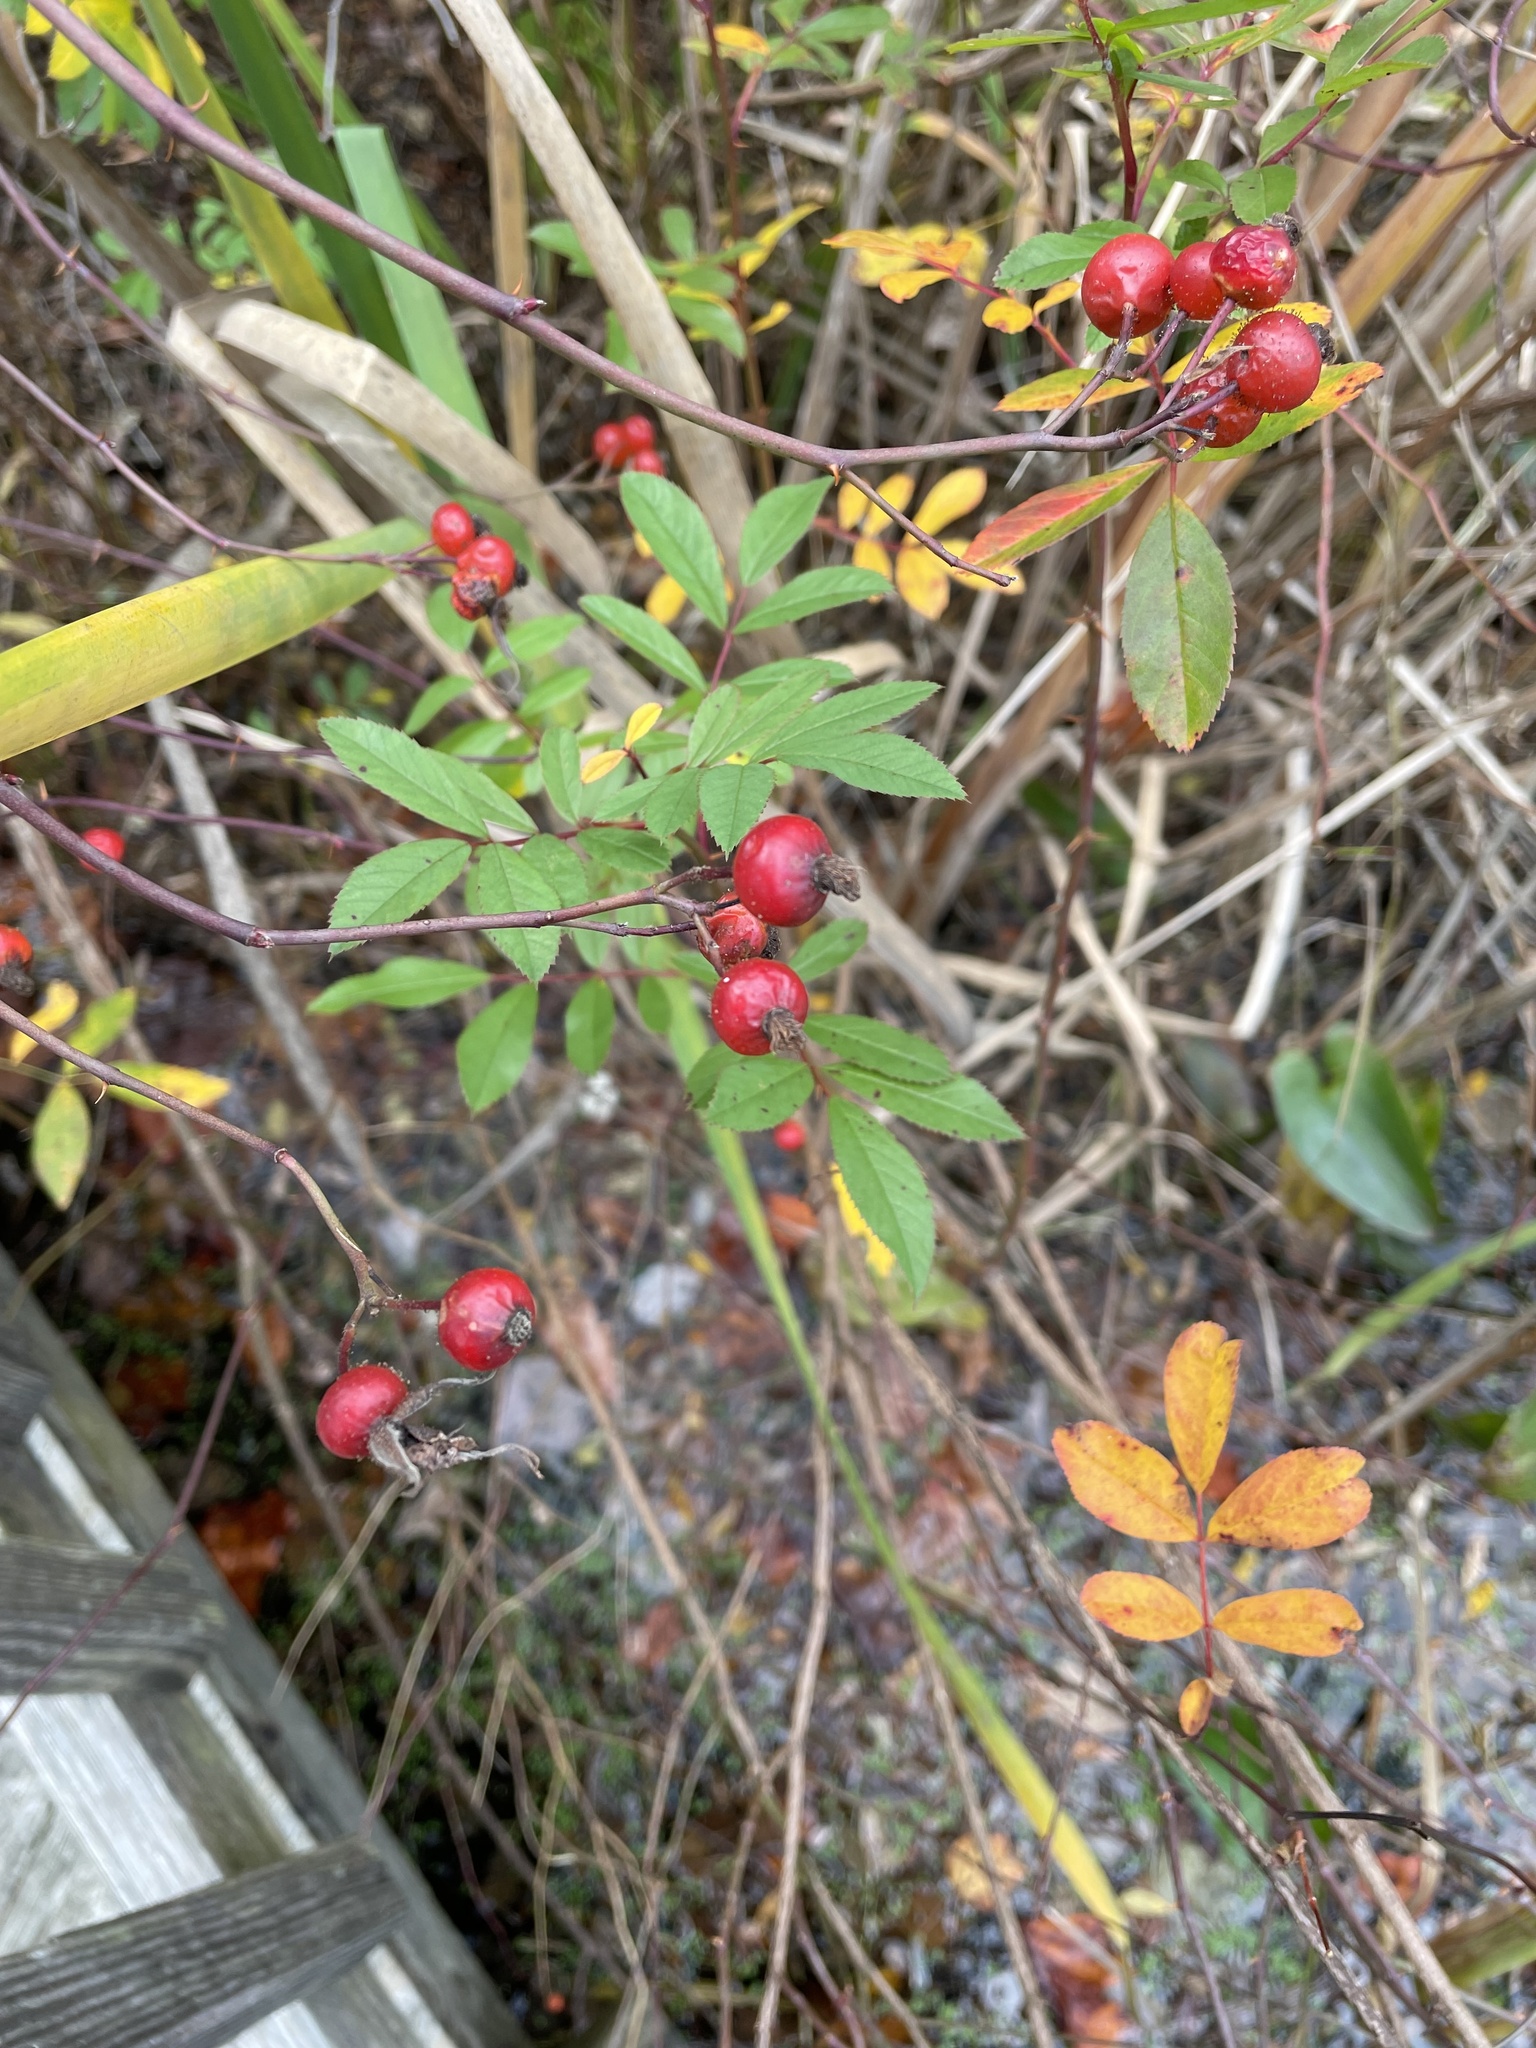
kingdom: Plantae
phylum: Tracheophyta
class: Magnoliopsida
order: Rosales
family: Rosaceae
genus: Rosa
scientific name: Rosa palustris
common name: Swamp rose
